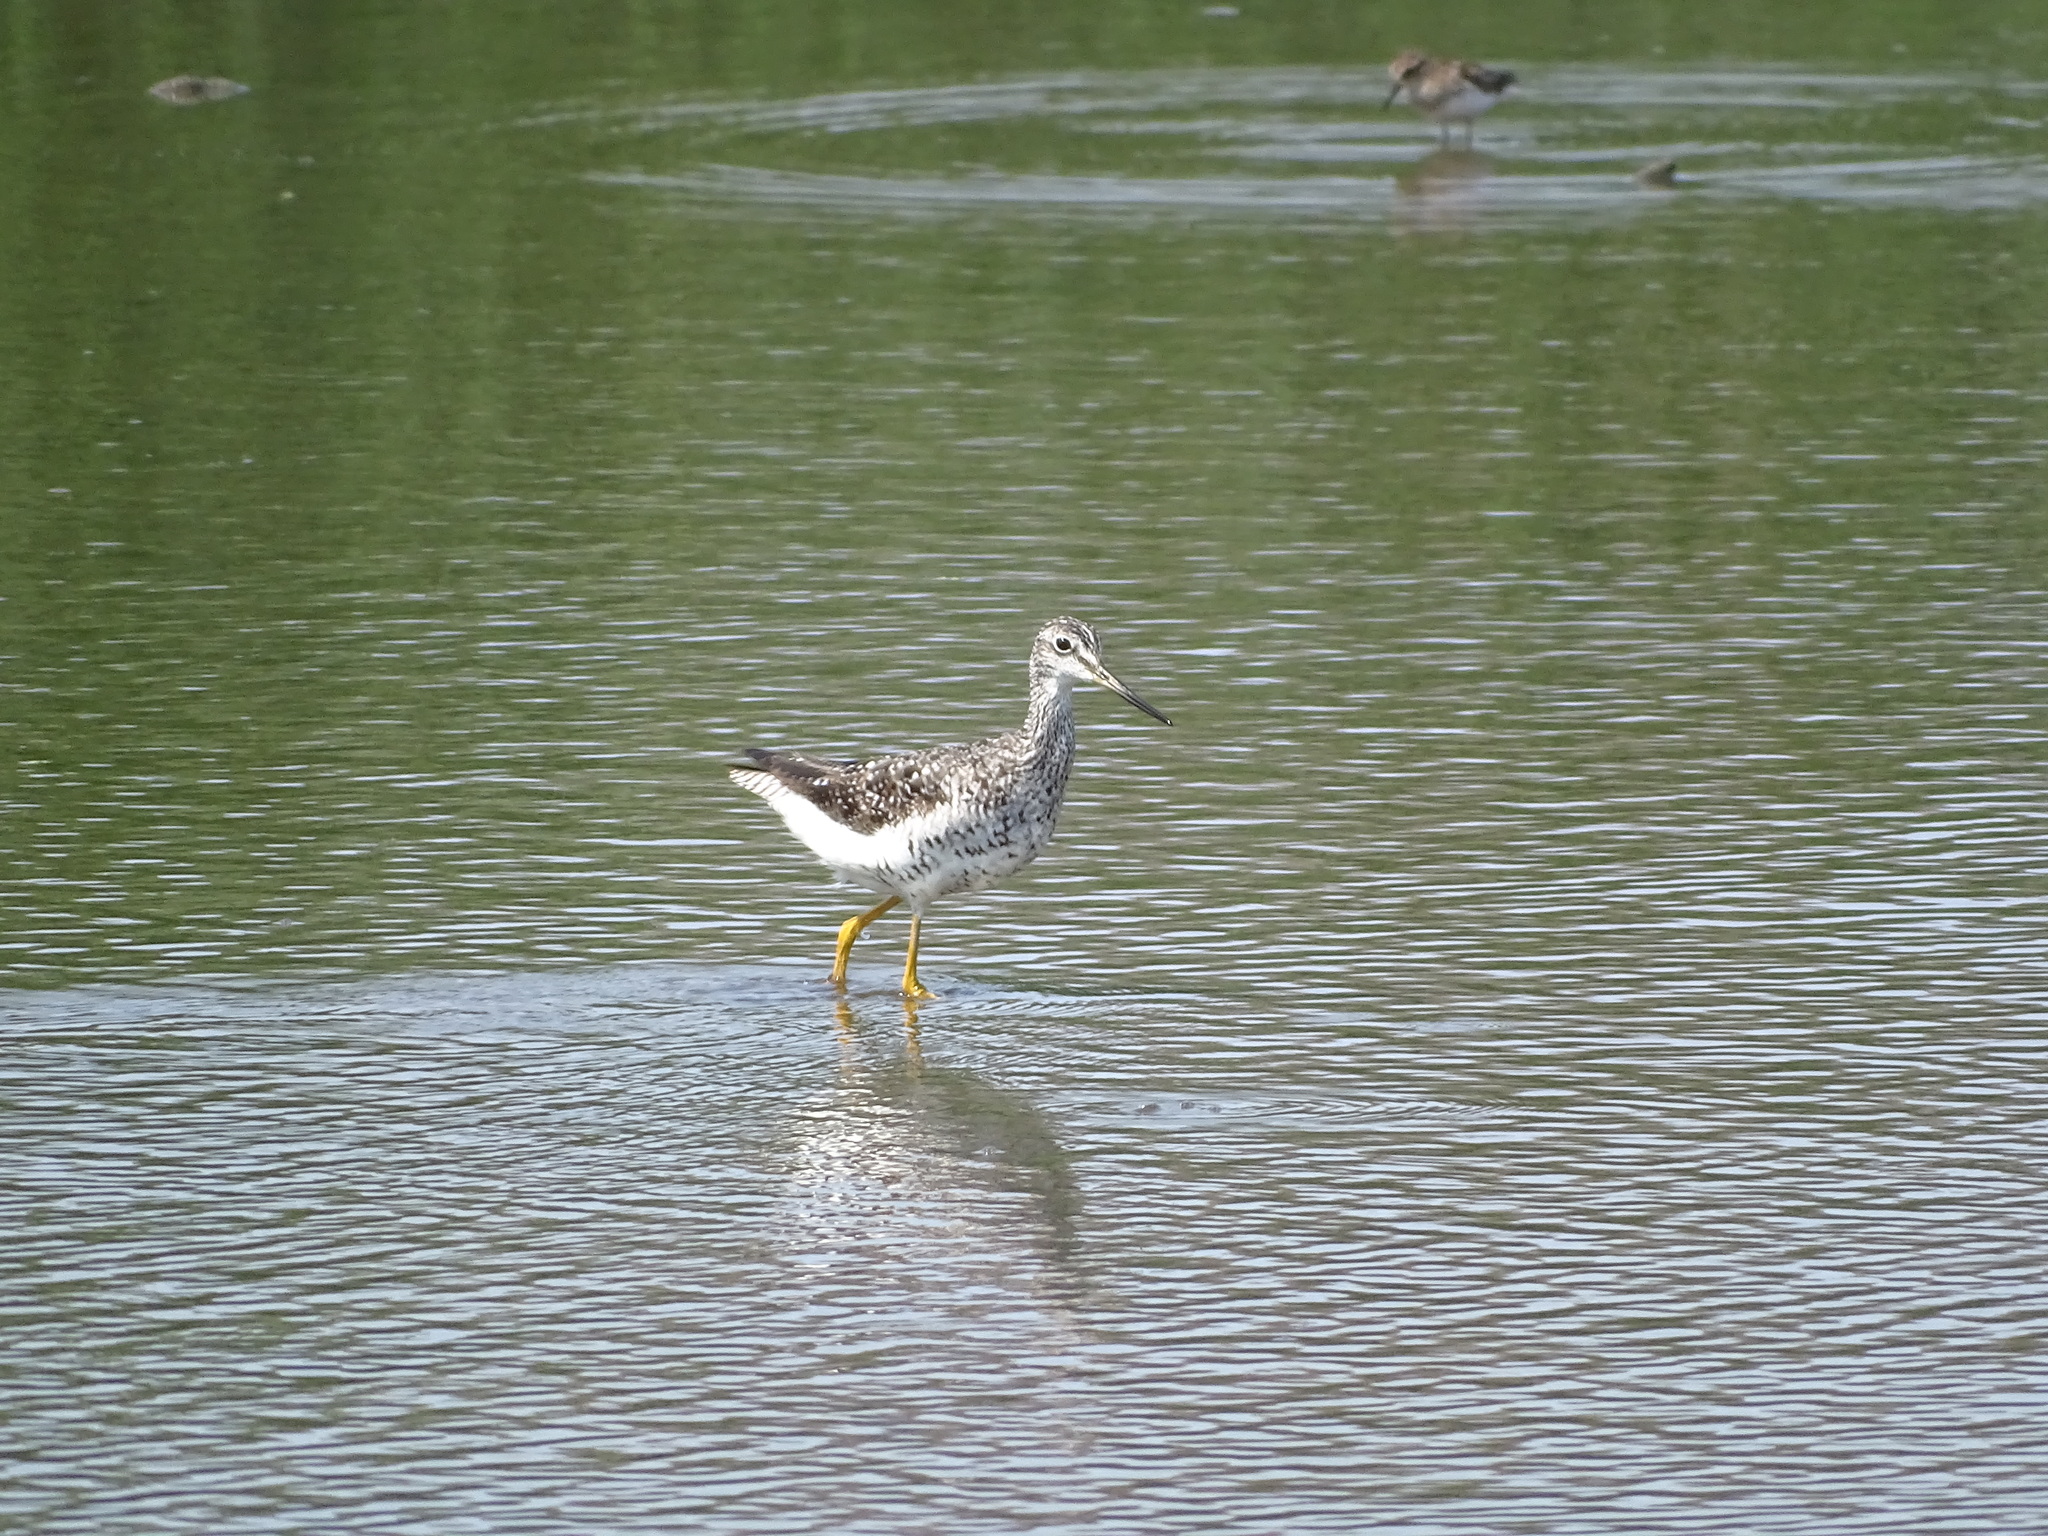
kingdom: Animalia
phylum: Chordata
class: Aves
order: Charadriiformes
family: Scolopacidae
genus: Tringa
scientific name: Tringa melanoleuca
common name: Greater yellowlegs
